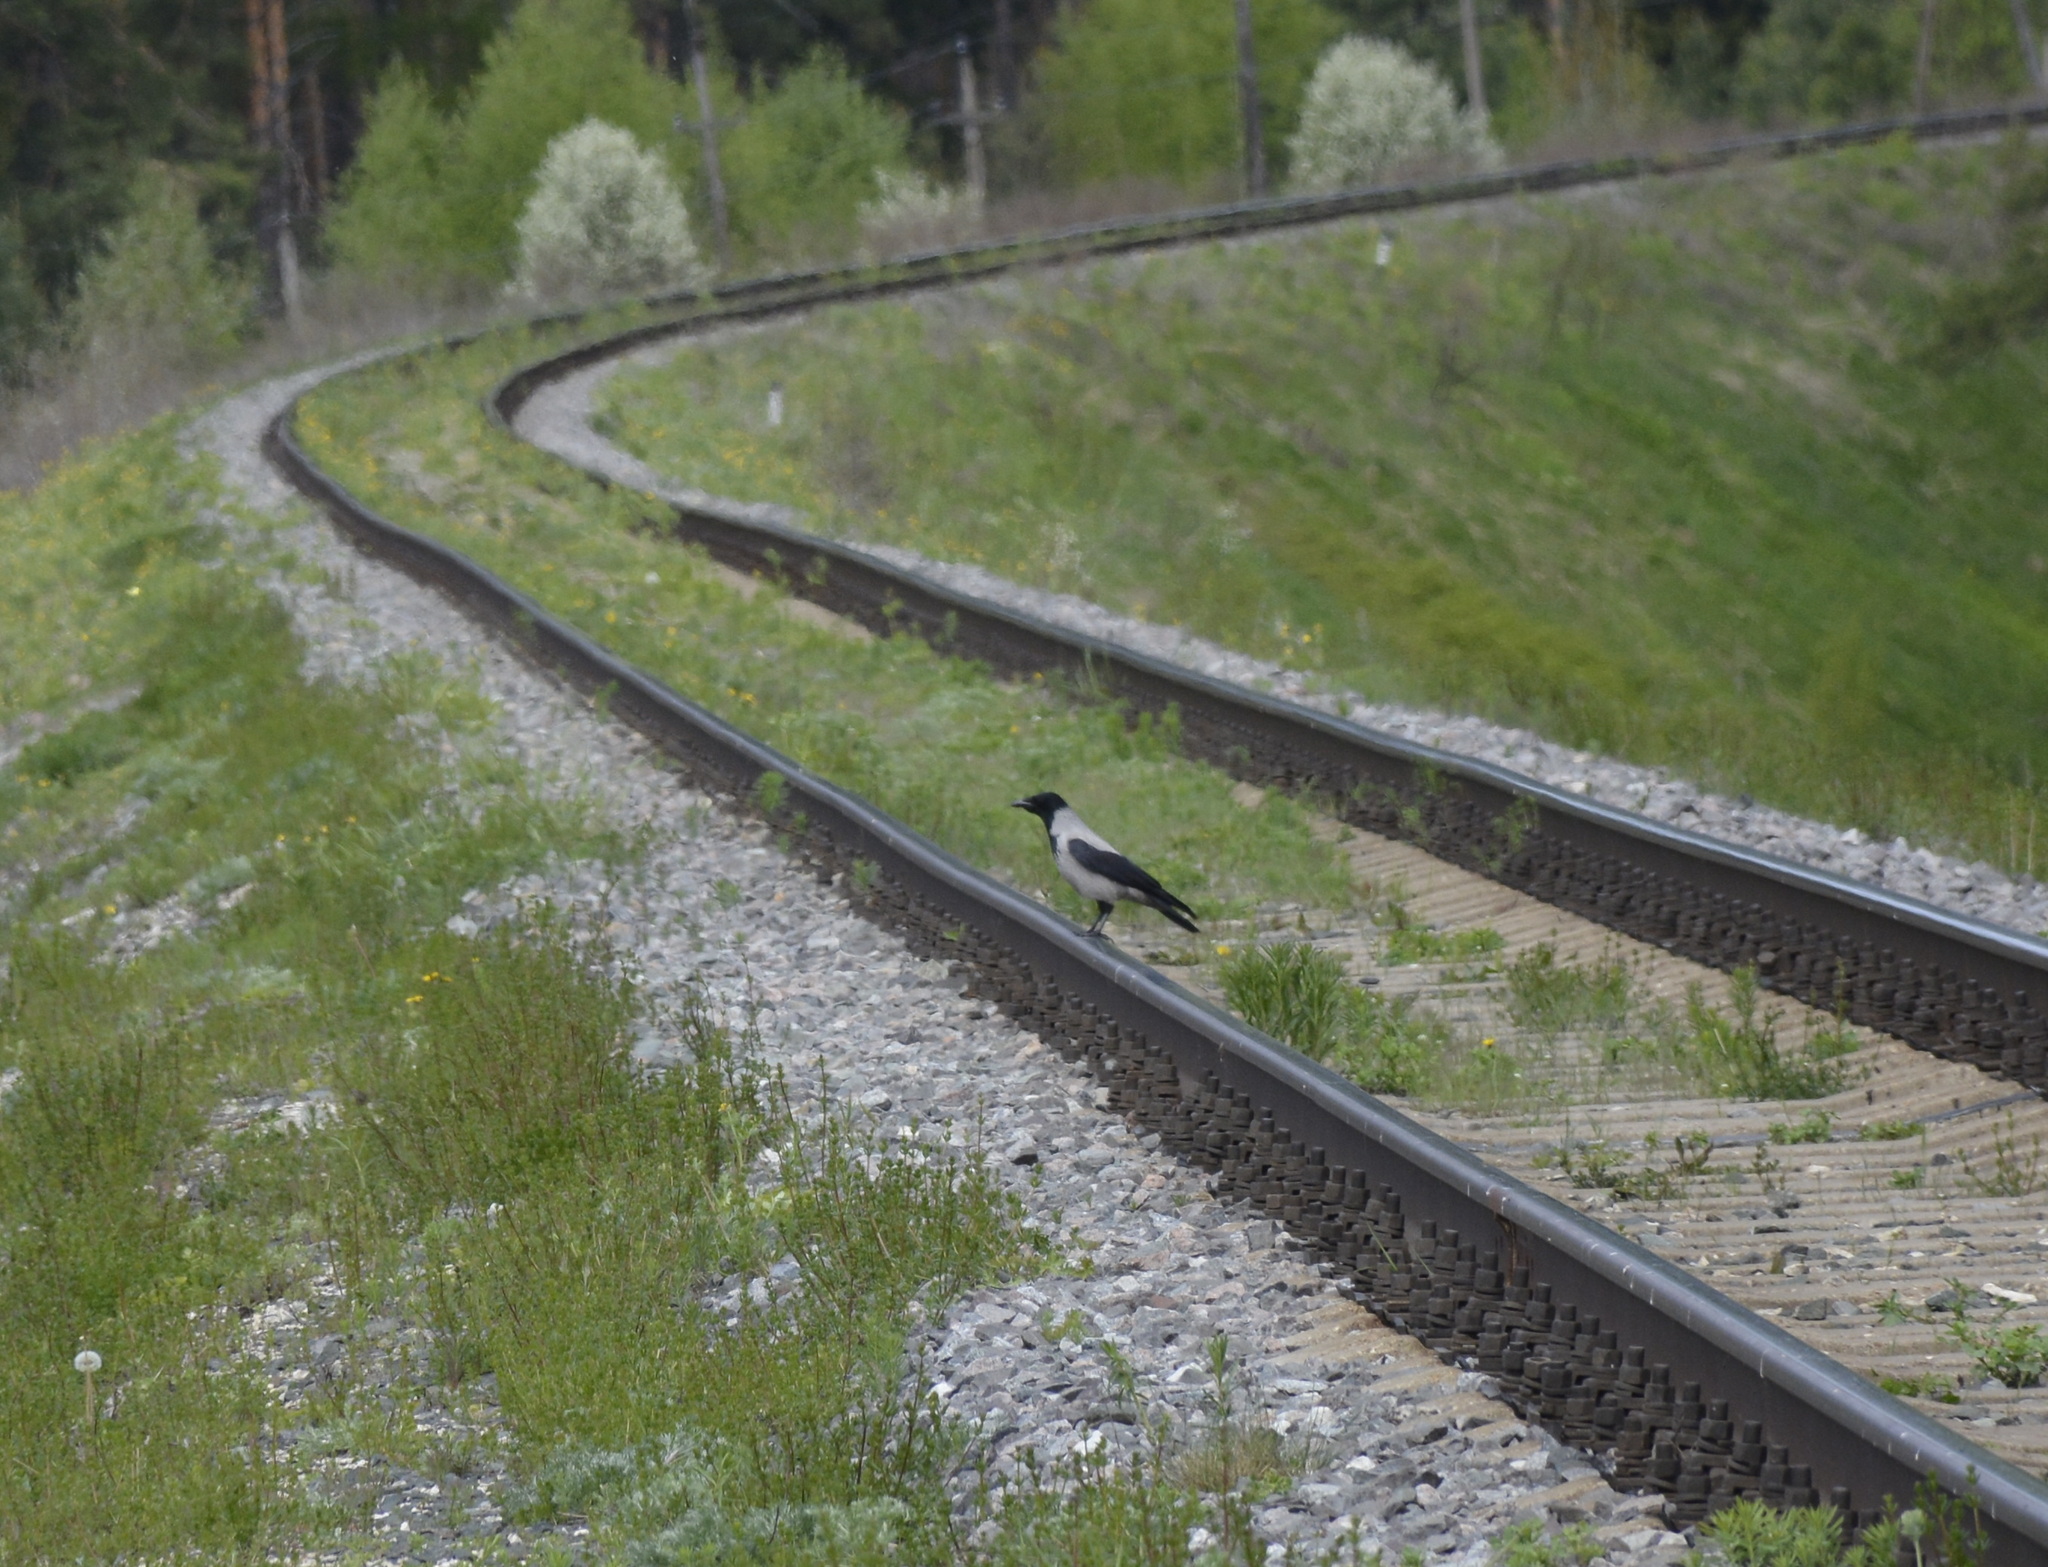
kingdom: Animalia
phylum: Chordata
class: Aves
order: Passeriformes
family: Corvidae
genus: Corvus
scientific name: Corvus cornix
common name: Hooded crow
